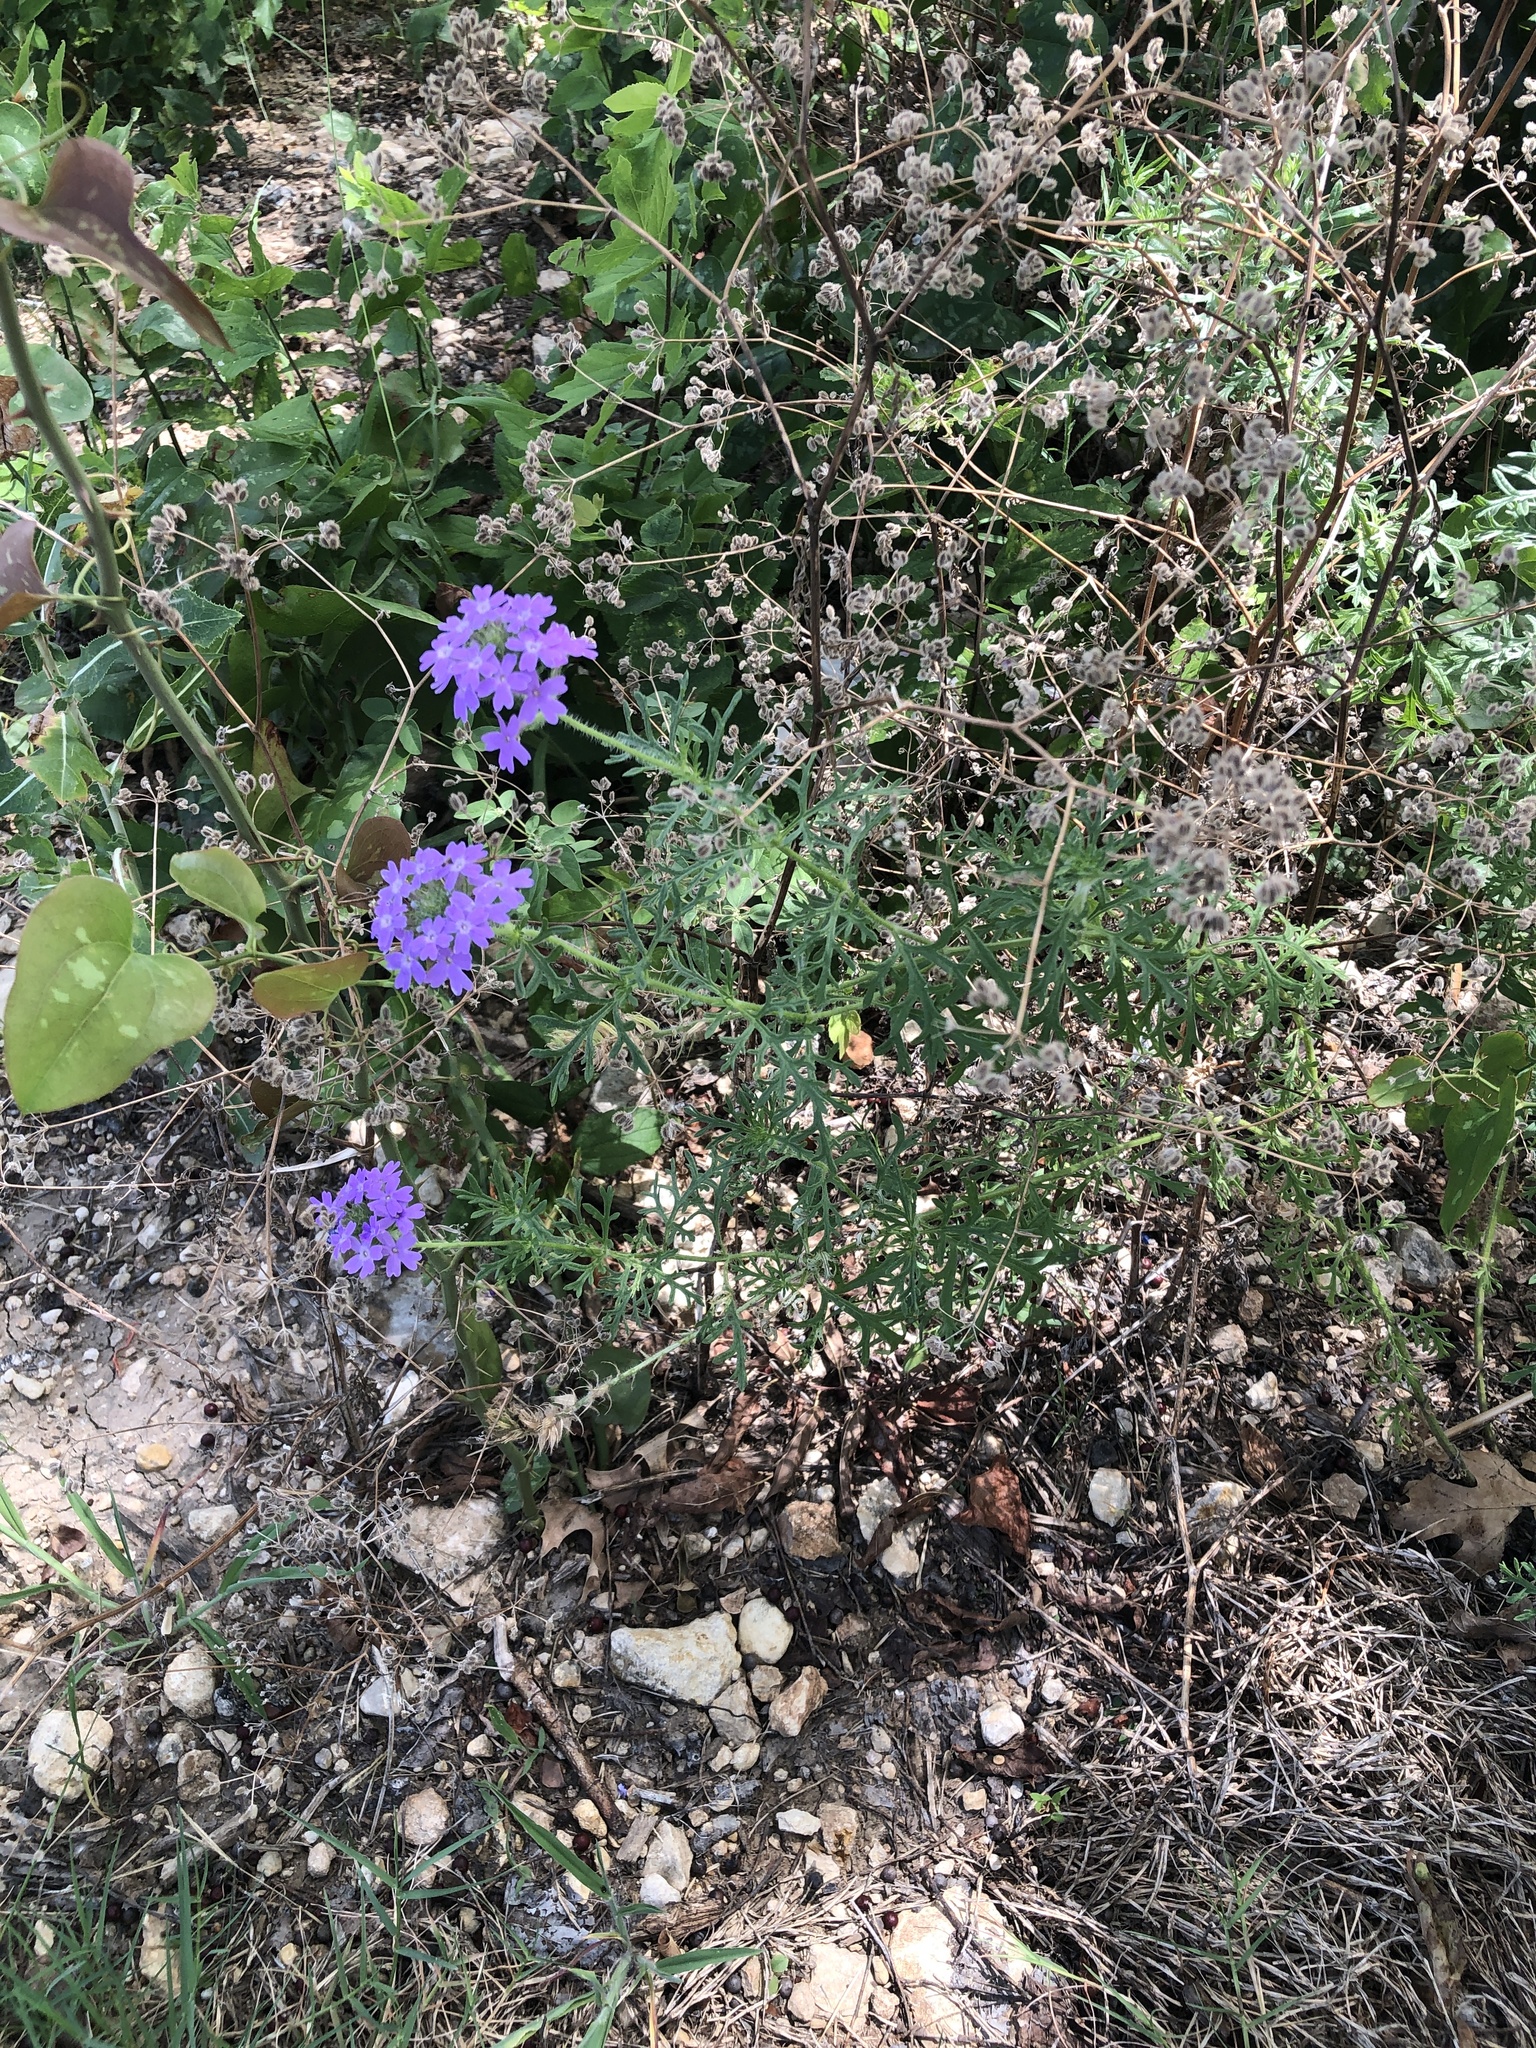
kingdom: Plantae
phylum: Tracheophyta
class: Magnoliopsida
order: Lamiales
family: Verbenaceae
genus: Verbena
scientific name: Verbena bipinnatifida
